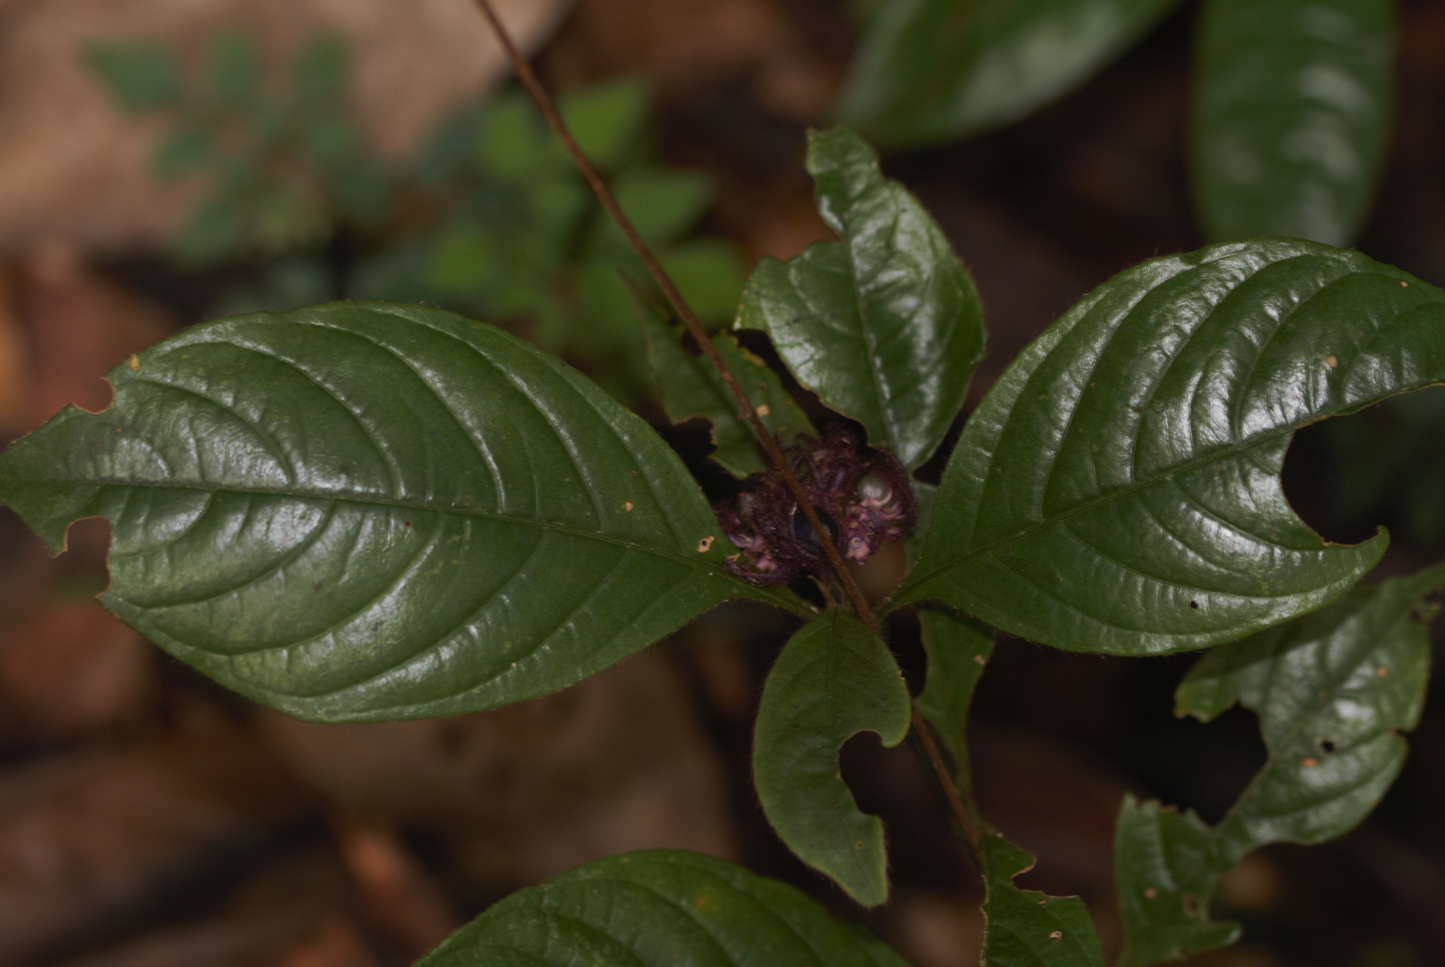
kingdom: Plantae
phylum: Tracheophyta
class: Magnoliopsida
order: Gentianales
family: Rubiaceae
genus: Palicourea
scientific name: Palicourea glabra
